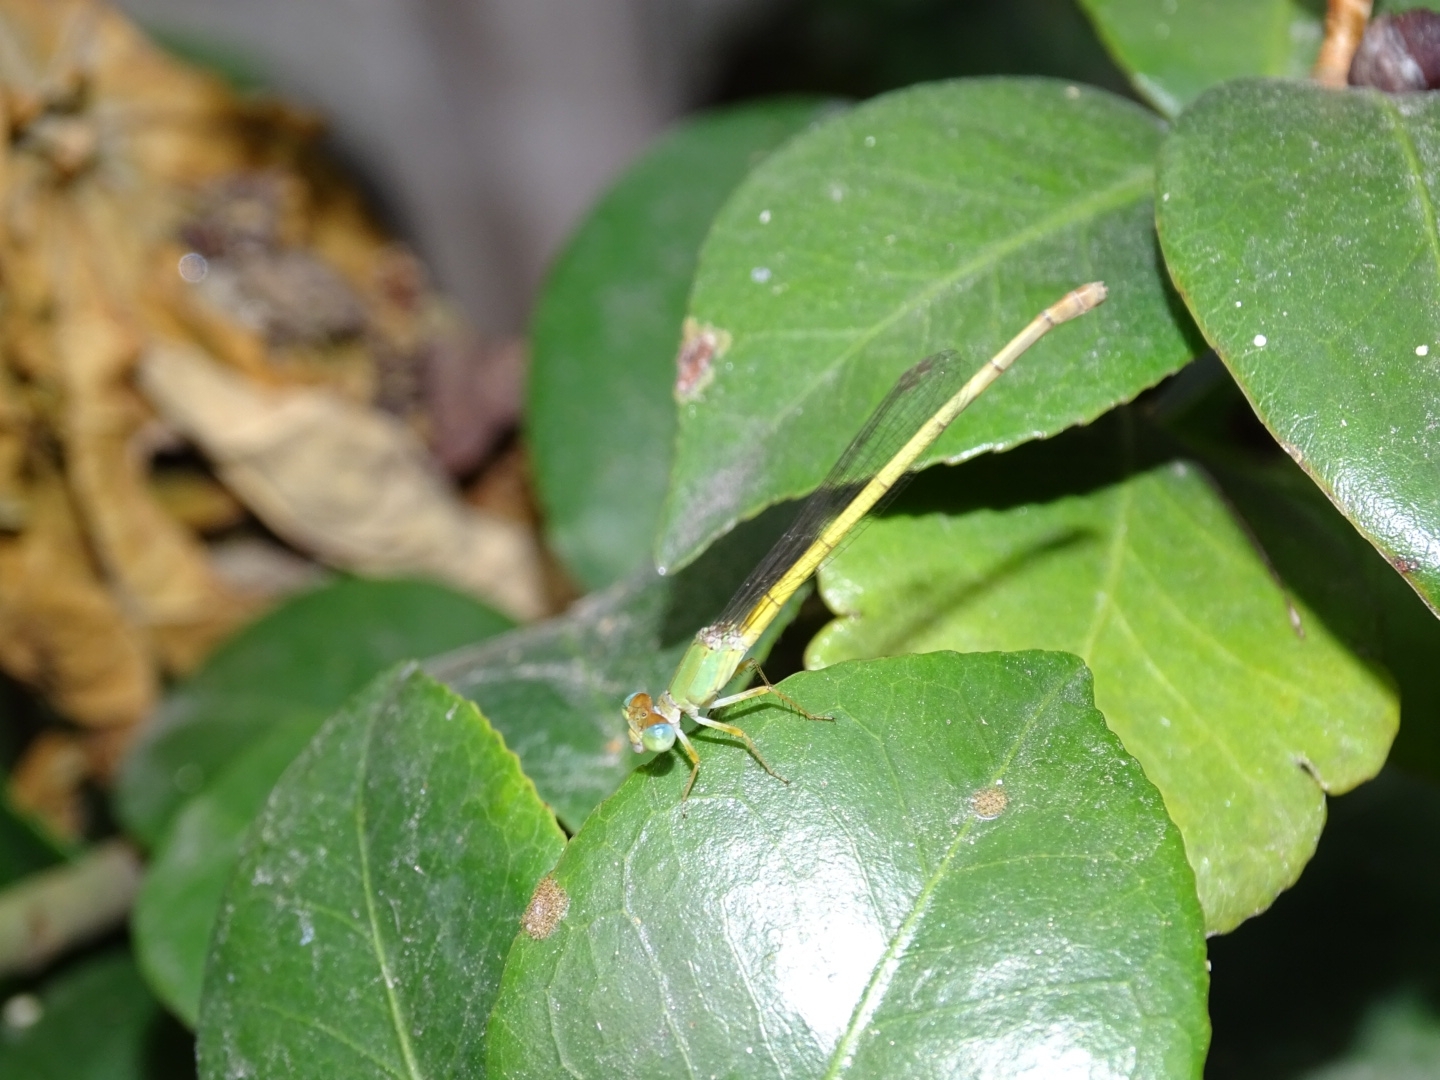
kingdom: Animalia
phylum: Arthropoda
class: Insecta
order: Odonata
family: Coenagrionidae
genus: Ceriagrion
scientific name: Ceriagrion coromandelianum
